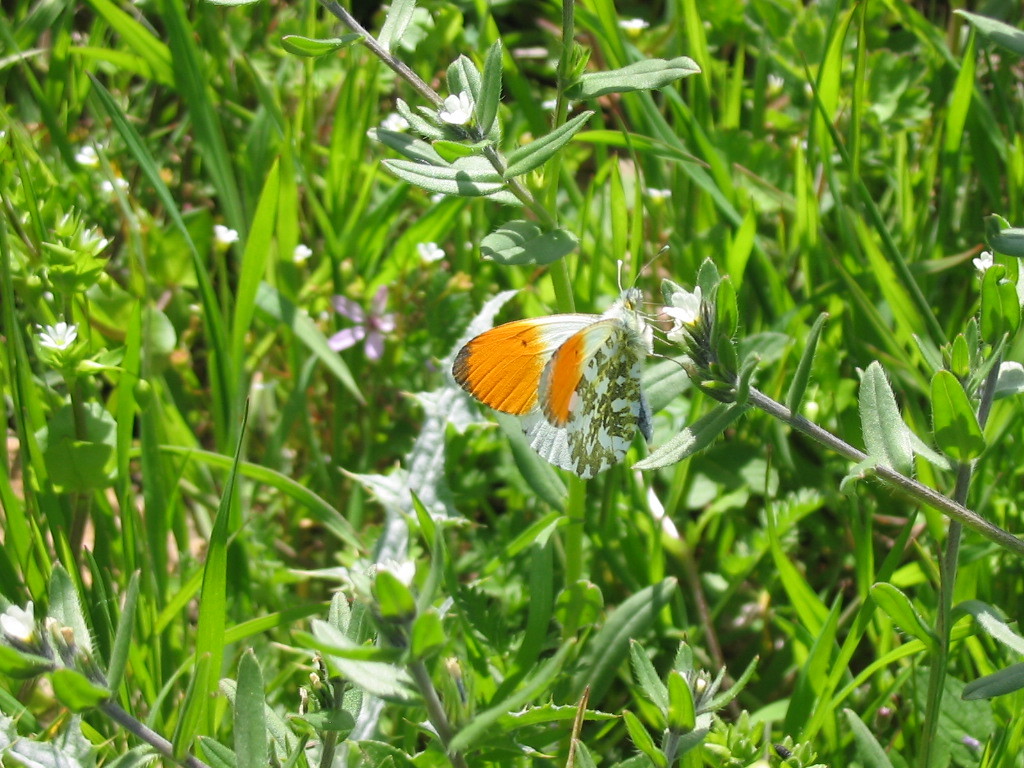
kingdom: Animalia
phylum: Arthropoda
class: Insecta
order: Lepidoptera
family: Pieridae
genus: Anthocharis
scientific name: Anthocharis cardamines
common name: Orange-tip
